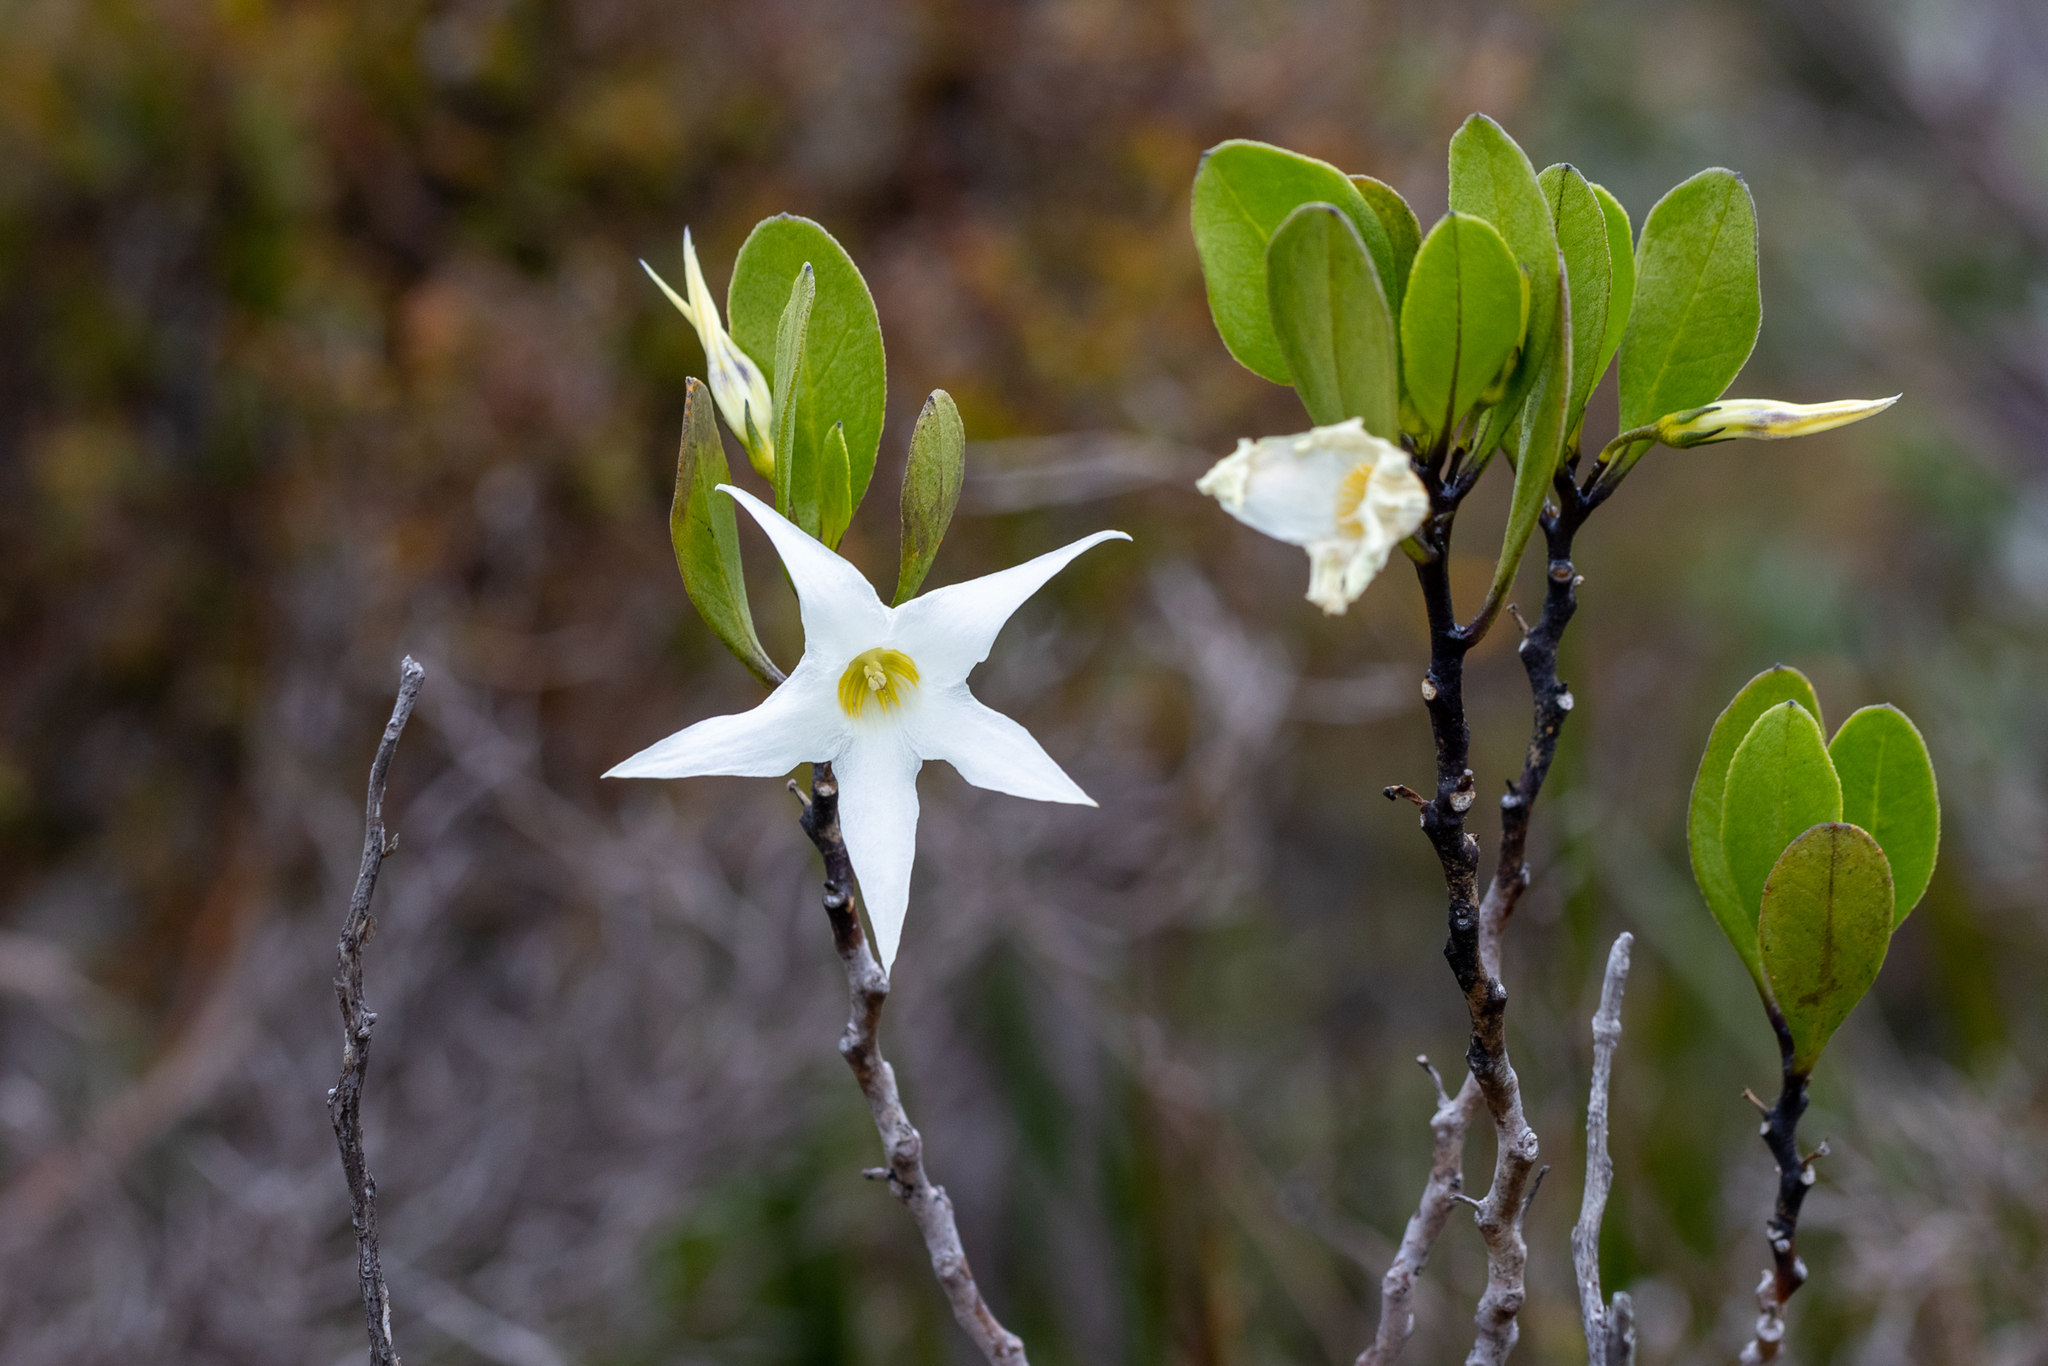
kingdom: Plantae
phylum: Tracheophyta
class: Magnoliopsida
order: Solanales
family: Solanaceae
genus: Anthocercis
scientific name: Anthocercis viscosa
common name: Sticky tailflower
